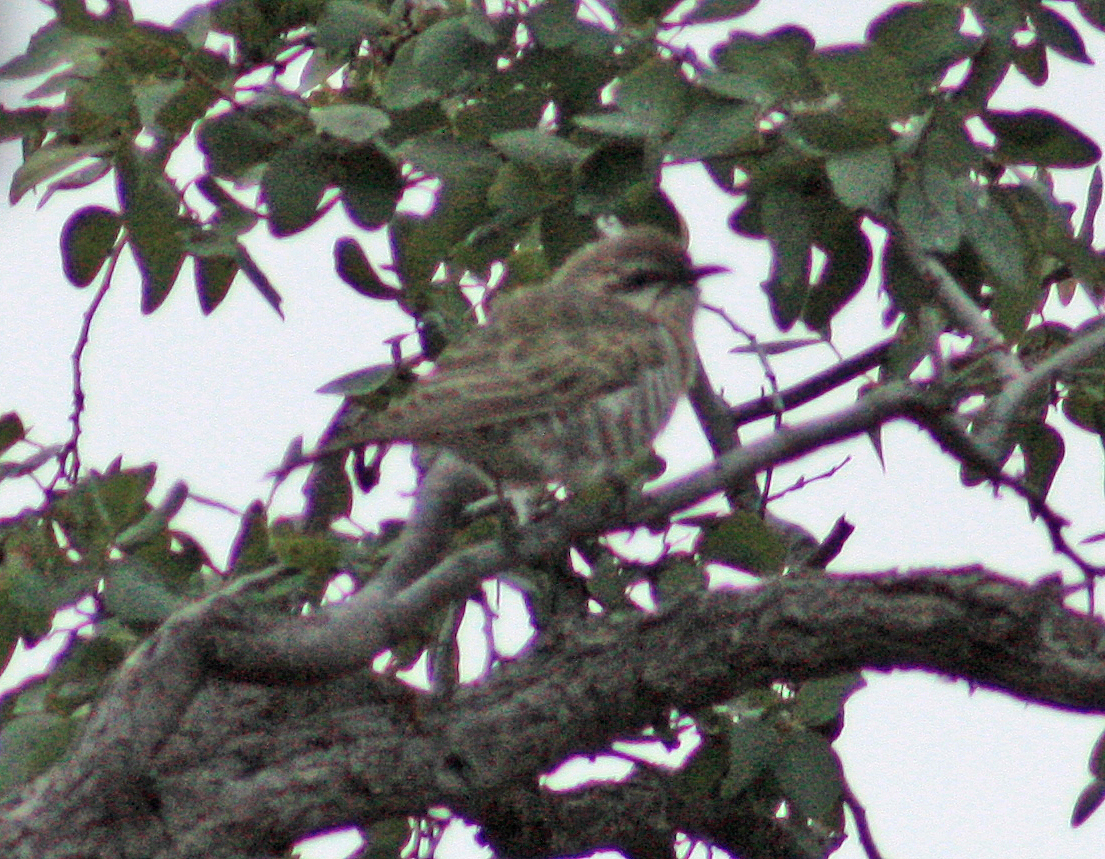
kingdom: Animalia
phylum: Chordata
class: Aves
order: Cuculiformes
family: Cuculidae
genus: Chrysococcyx
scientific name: Chrysococcyx basalis
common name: Horsfield's bronze cuckoo
